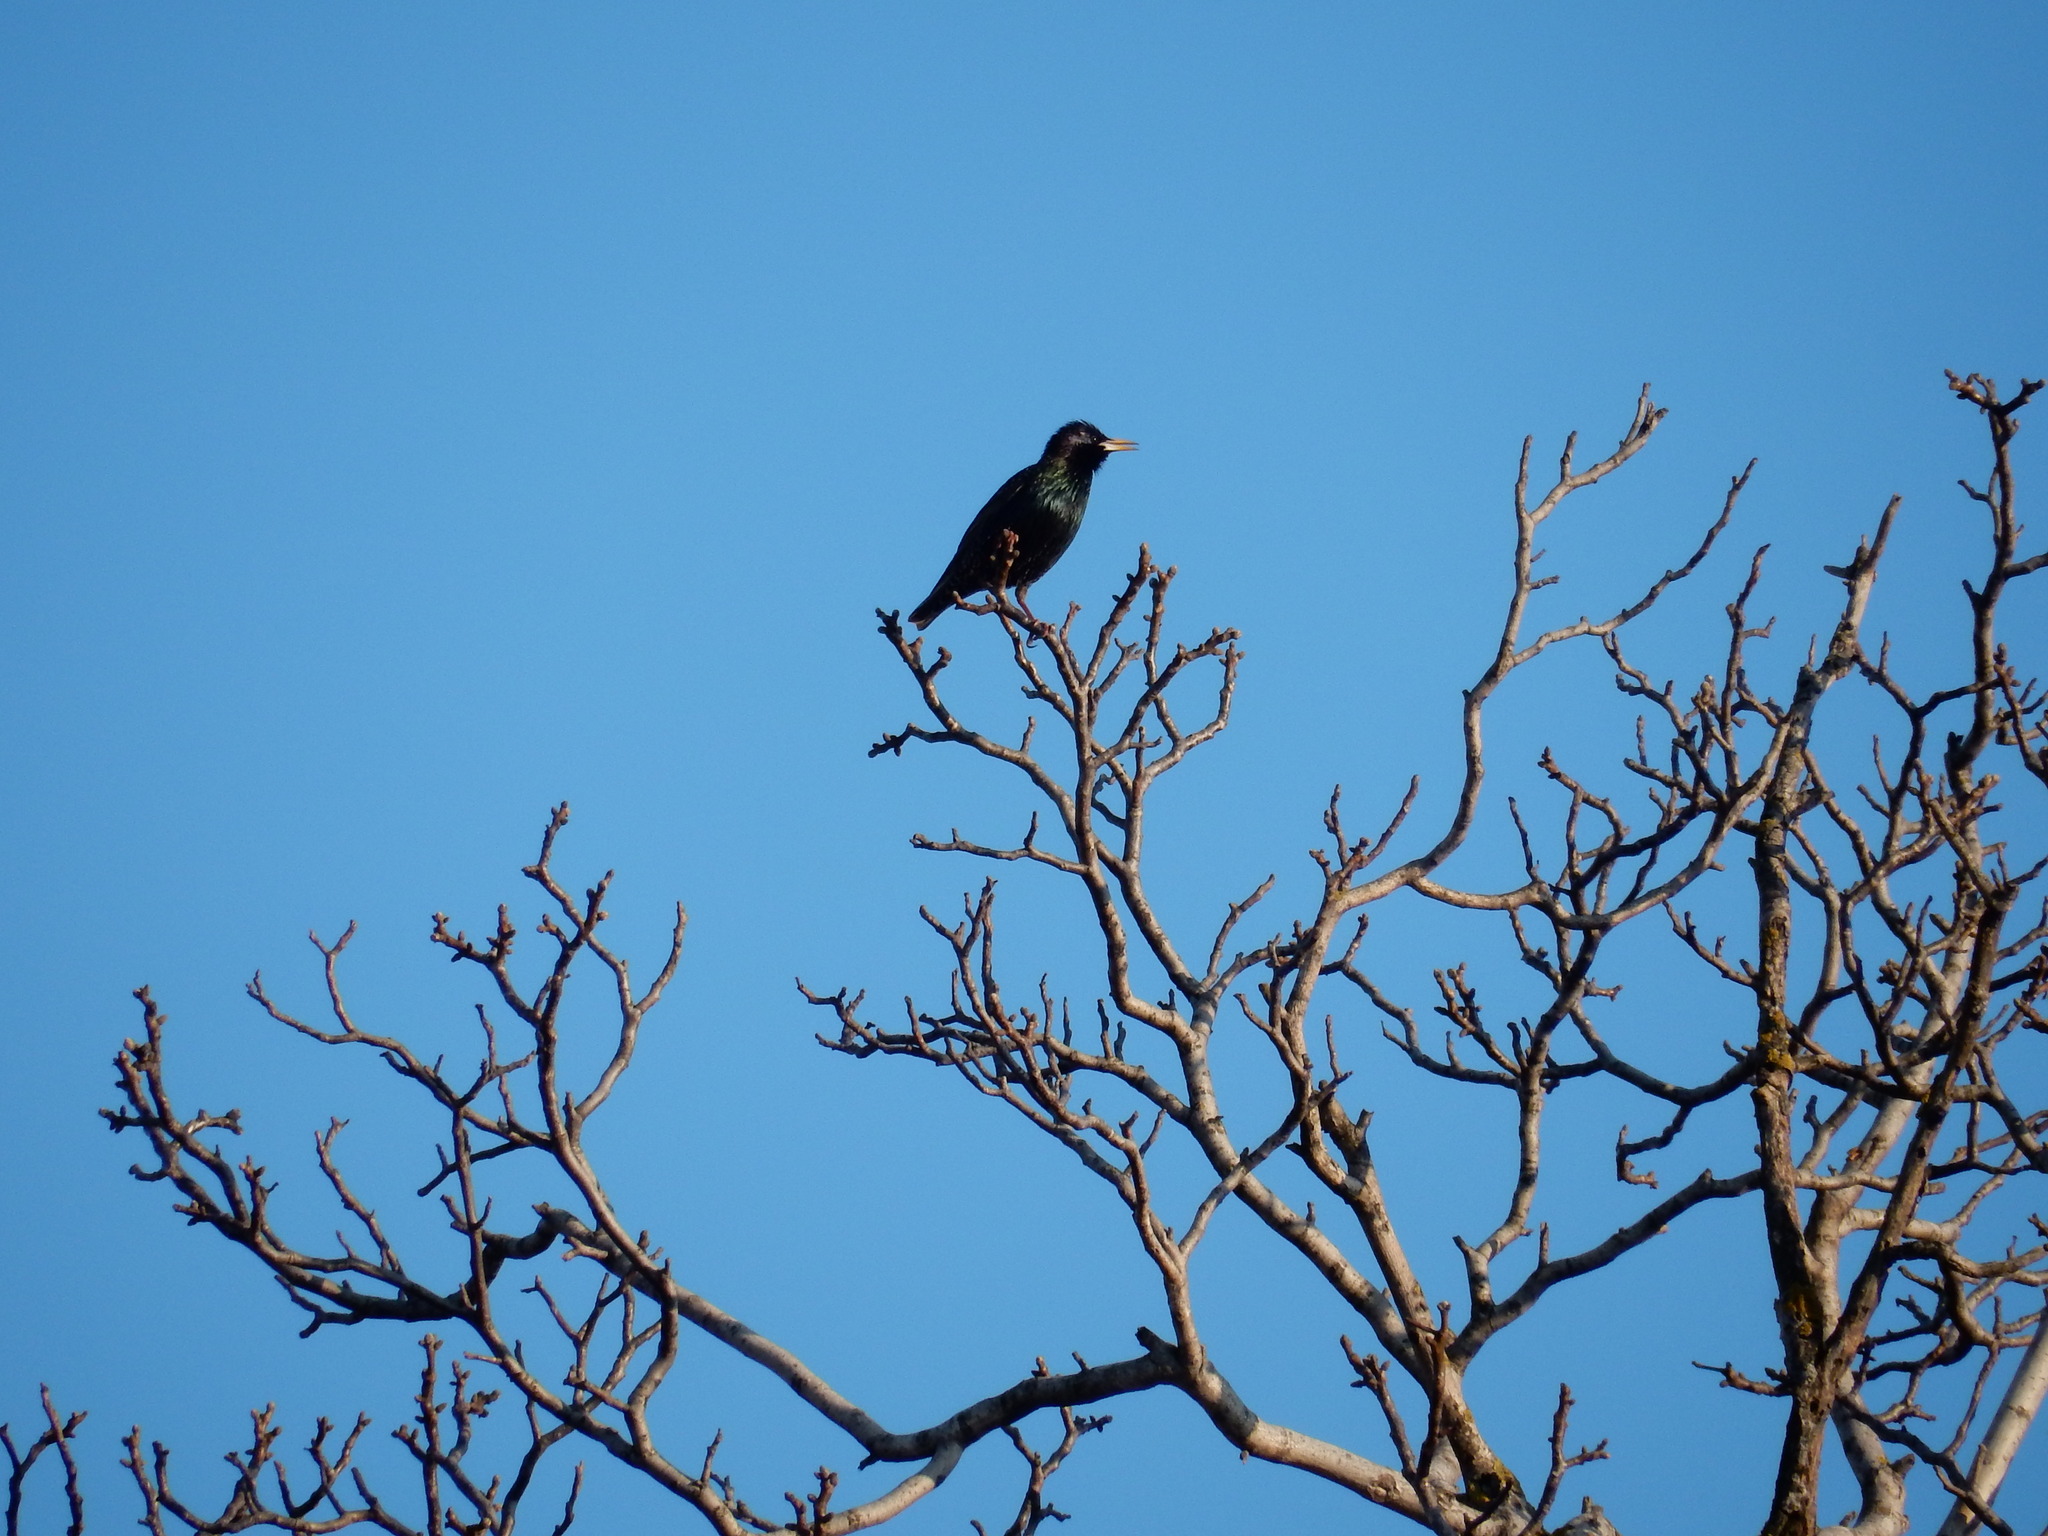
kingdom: Animalia
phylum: Chordata
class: Aves
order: Passeriformes
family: Sturnidae
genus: Sturnus
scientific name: Sturnus vulgaris
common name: Common starling
